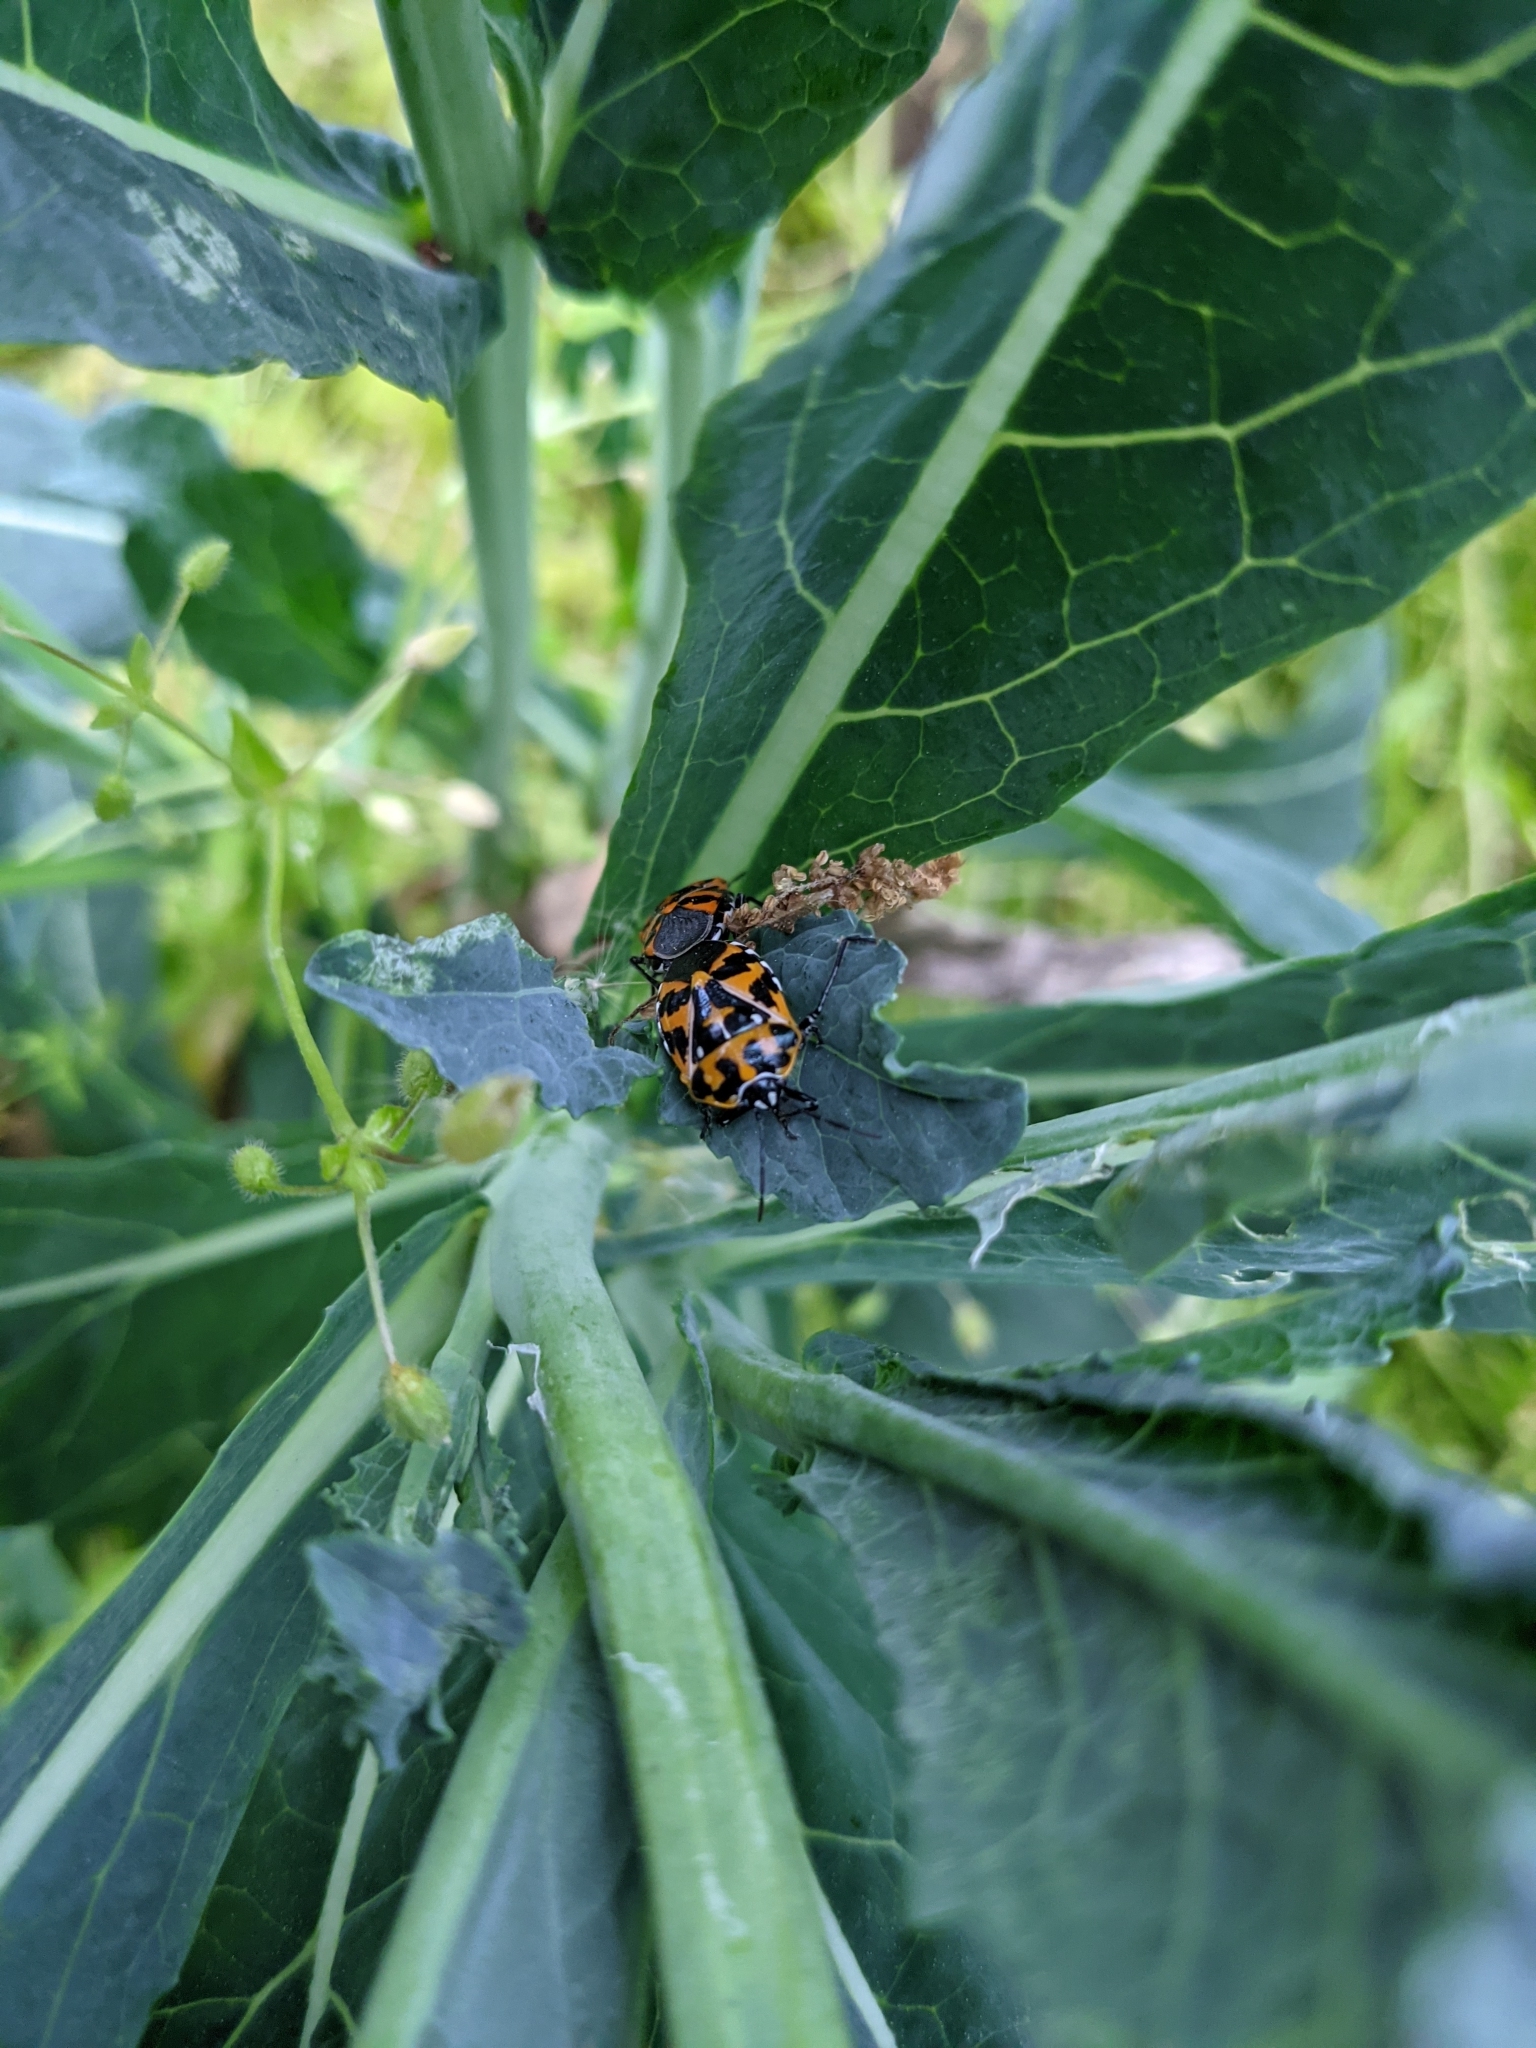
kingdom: Animalia
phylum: Arthropoda
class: Insecta
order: Hemiptera
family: Pentatomidae
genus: Murgantia
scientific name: Murgantia histrionica
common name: Harlequin bug
